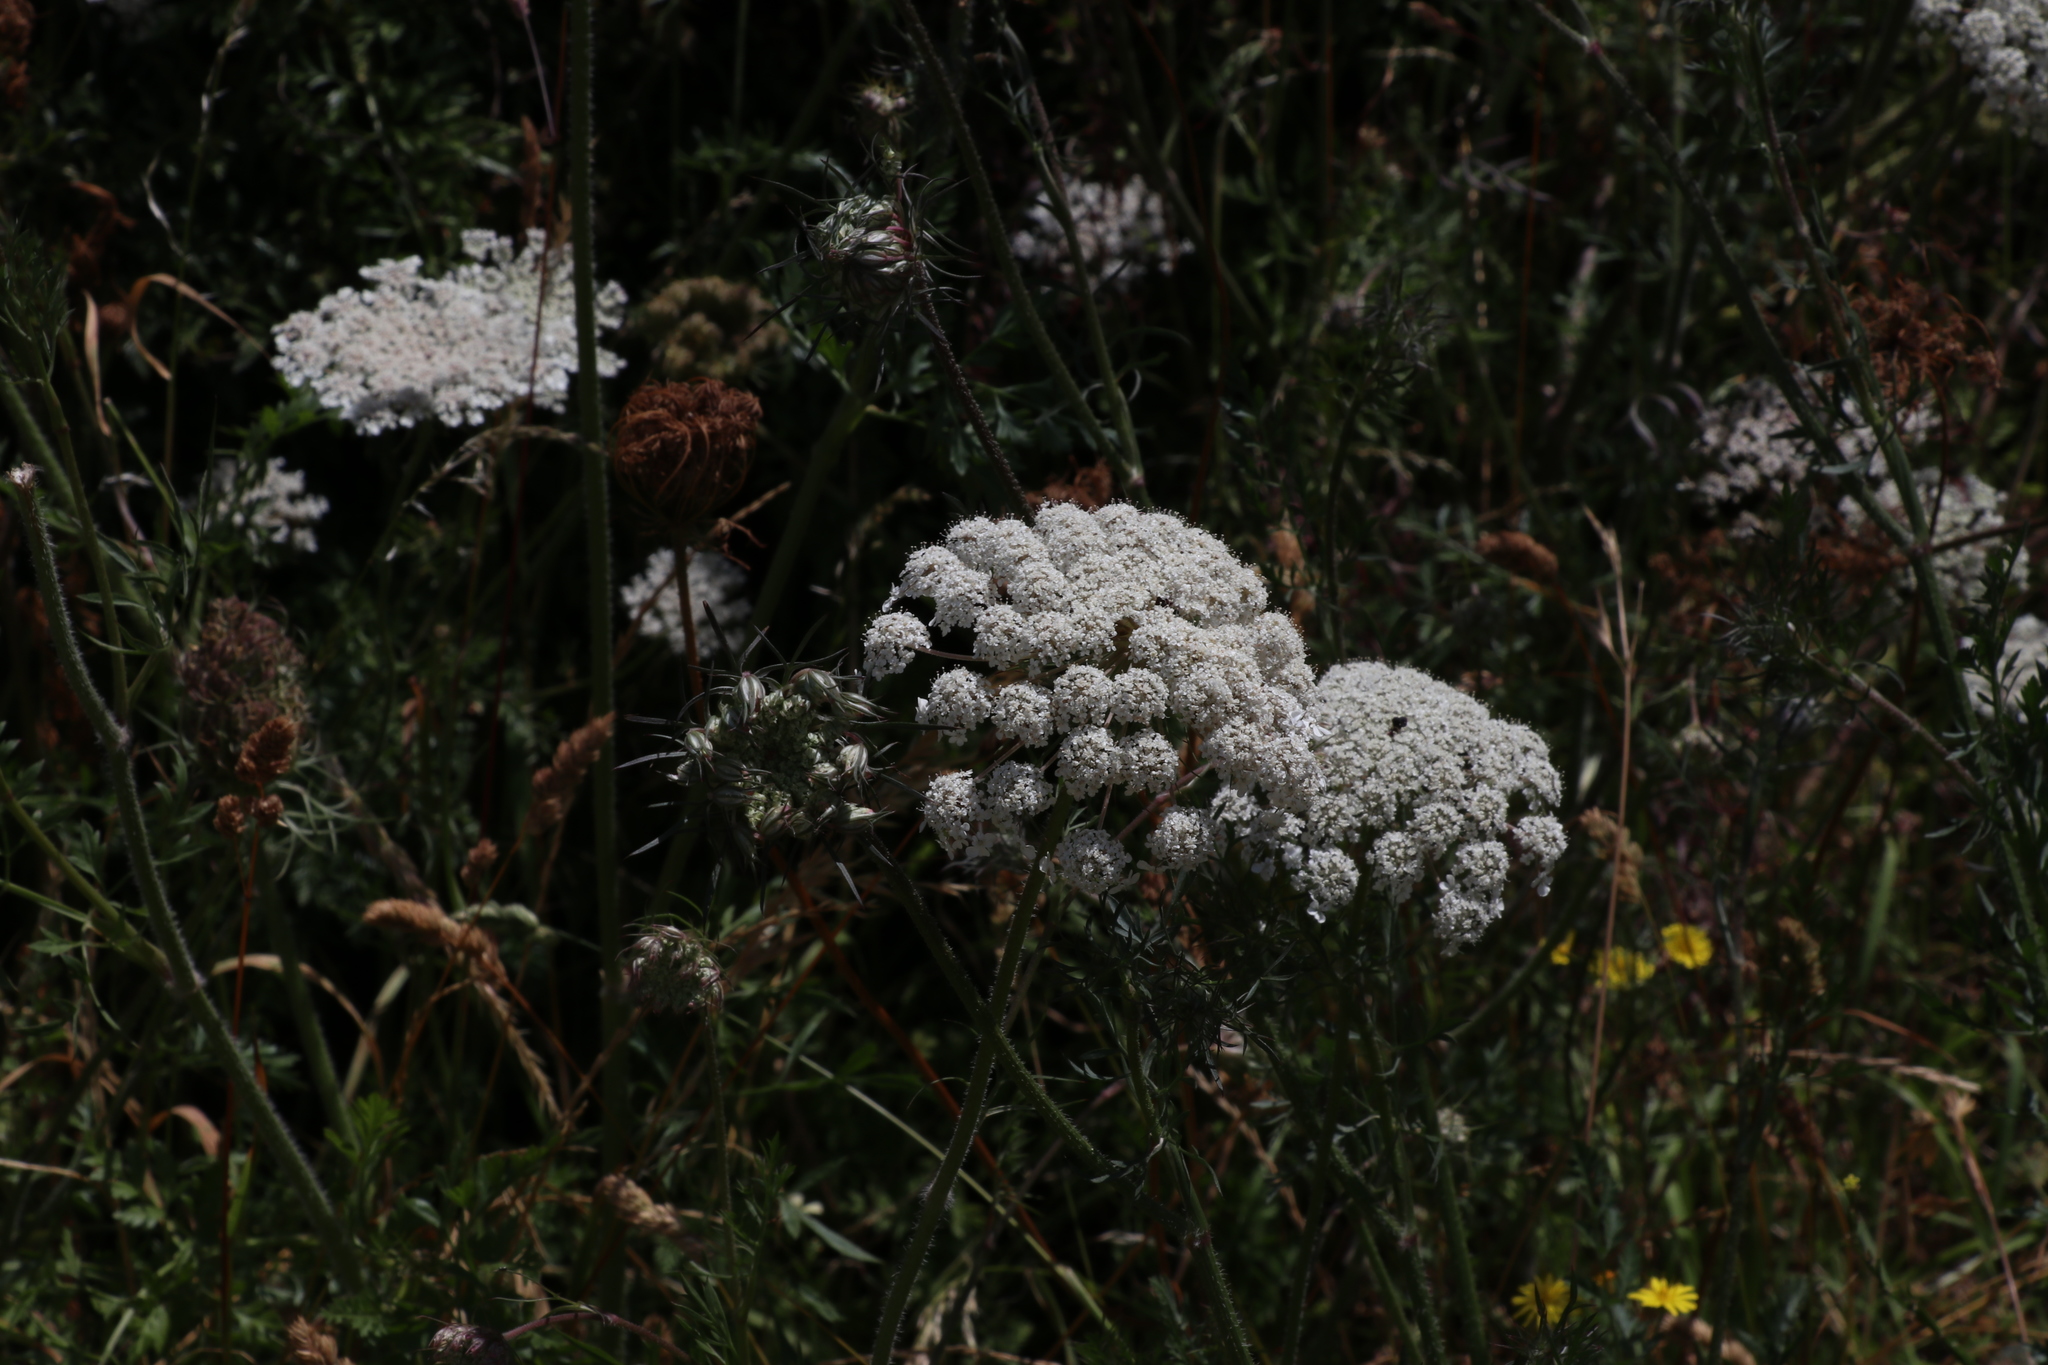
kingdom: Plantae
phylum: Tracheophyta
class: Magnoliopsida
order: Apiales
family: Apiaceae
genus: Daucus
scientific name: Daucus carota
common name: Wild carrot
